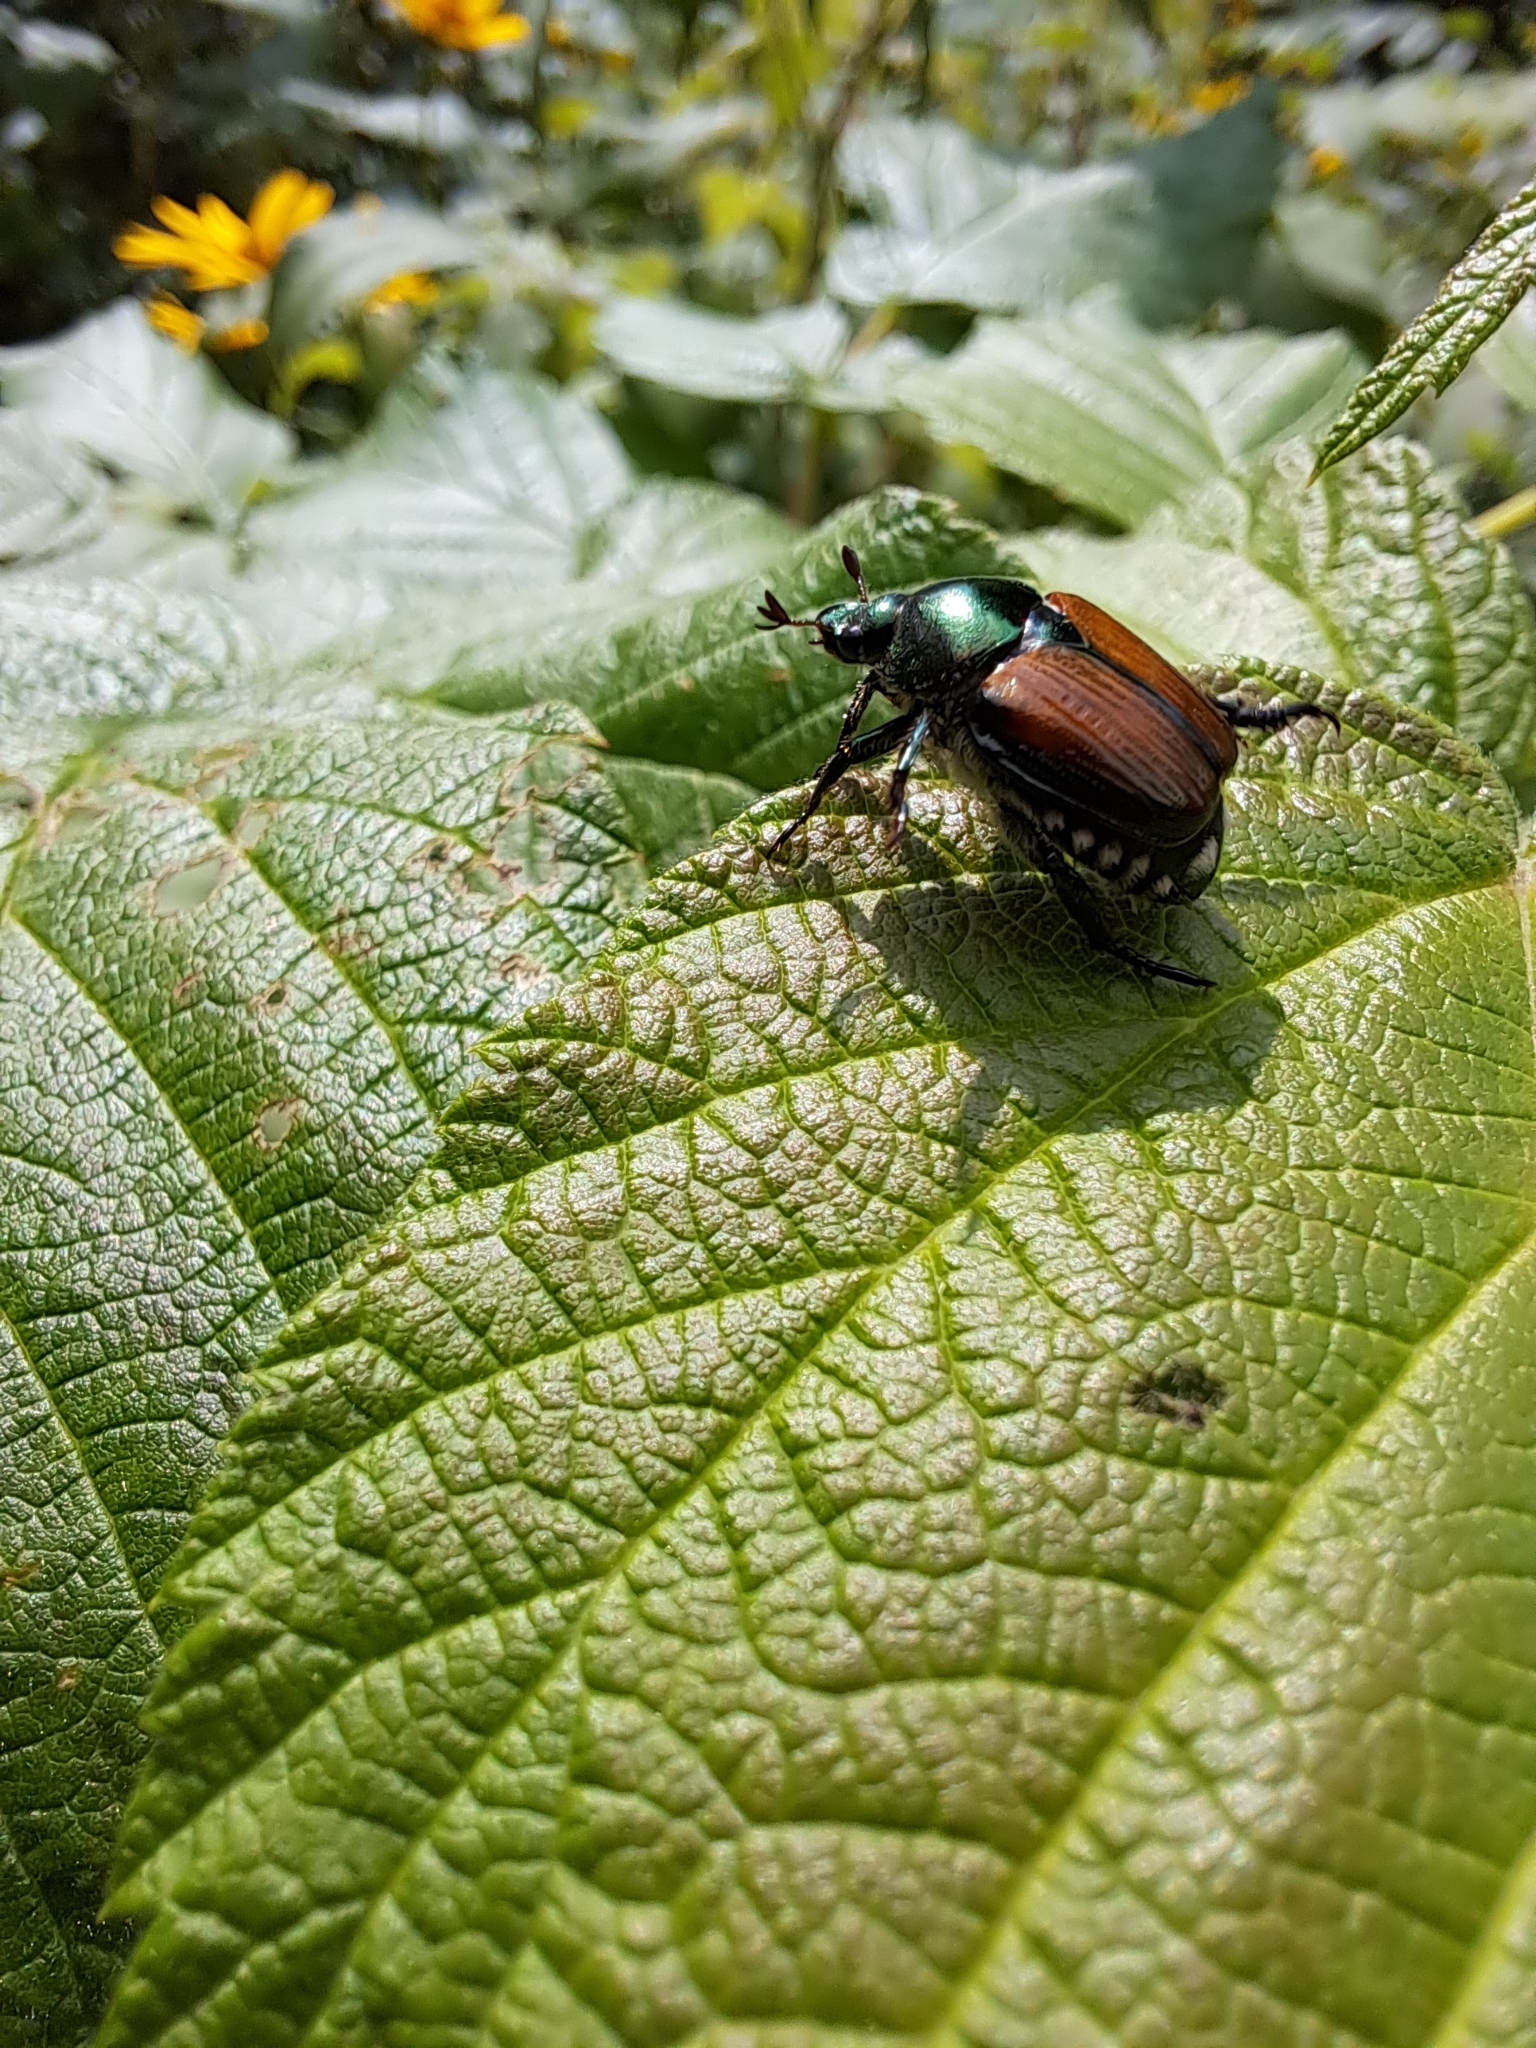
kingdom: Animalia
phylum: Arthropoda
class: Insecta
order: Coleoptera
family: Scarabaeidae
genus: Popillia
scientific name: Popillia japonica
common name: Japanese beetle
